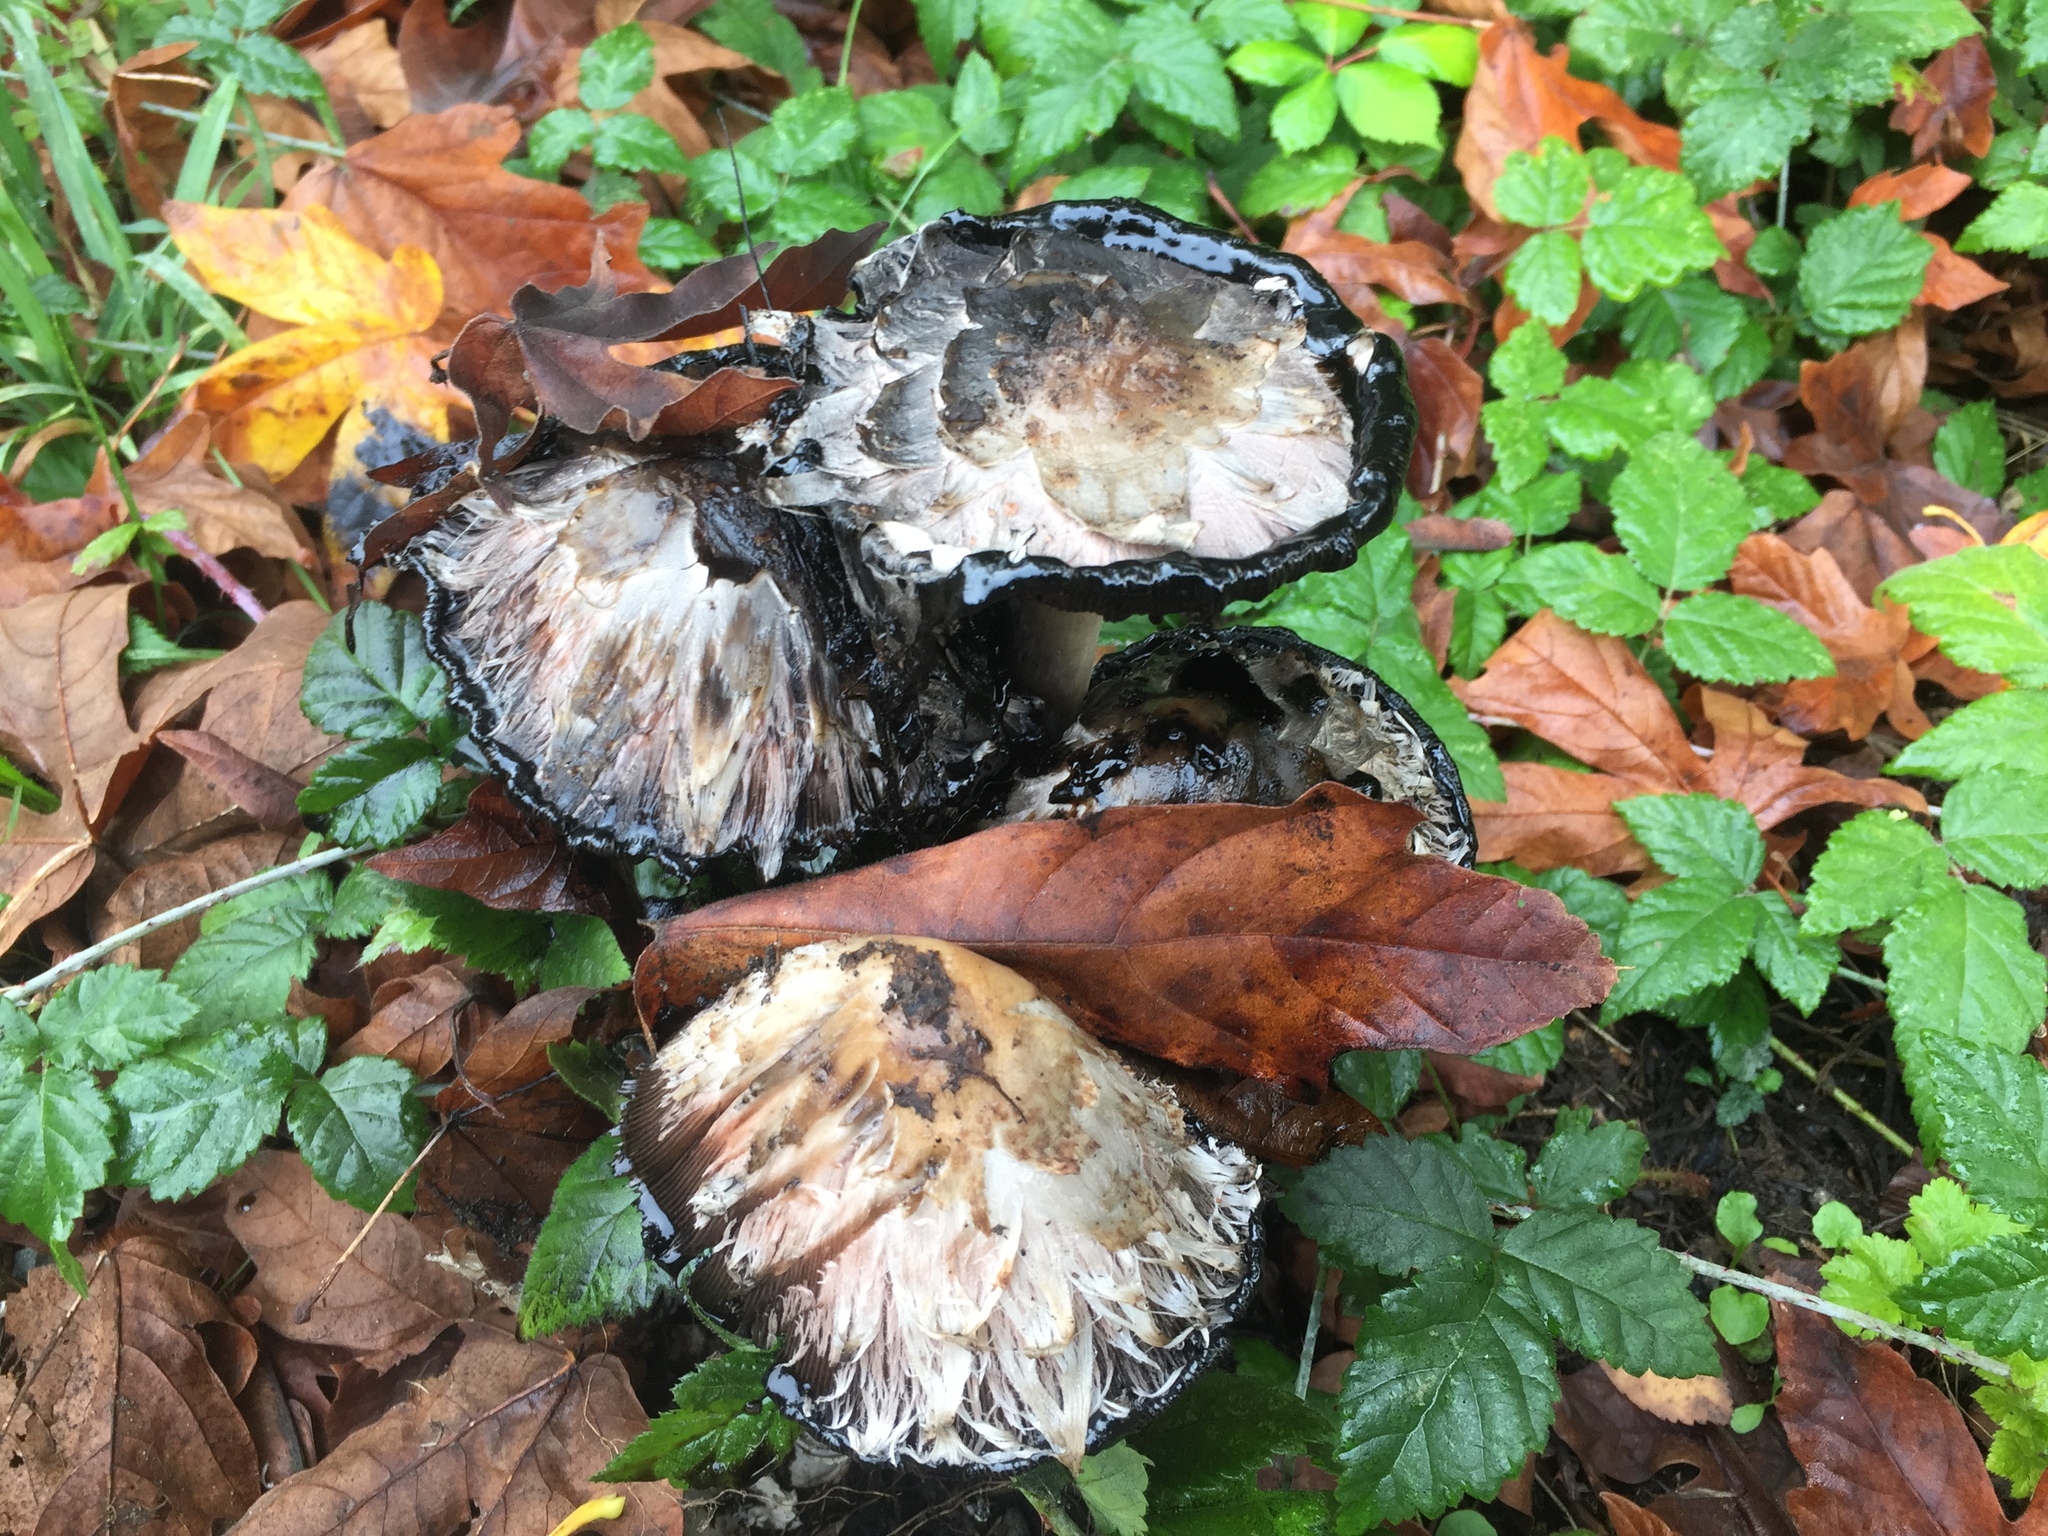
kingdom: Fungi
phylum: Basidiomycota
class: Agaricomycetes
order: Agaricales
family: Agaricaceae
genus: Coprinus
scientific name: Coprinus comatus
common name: Lawyer's wig
